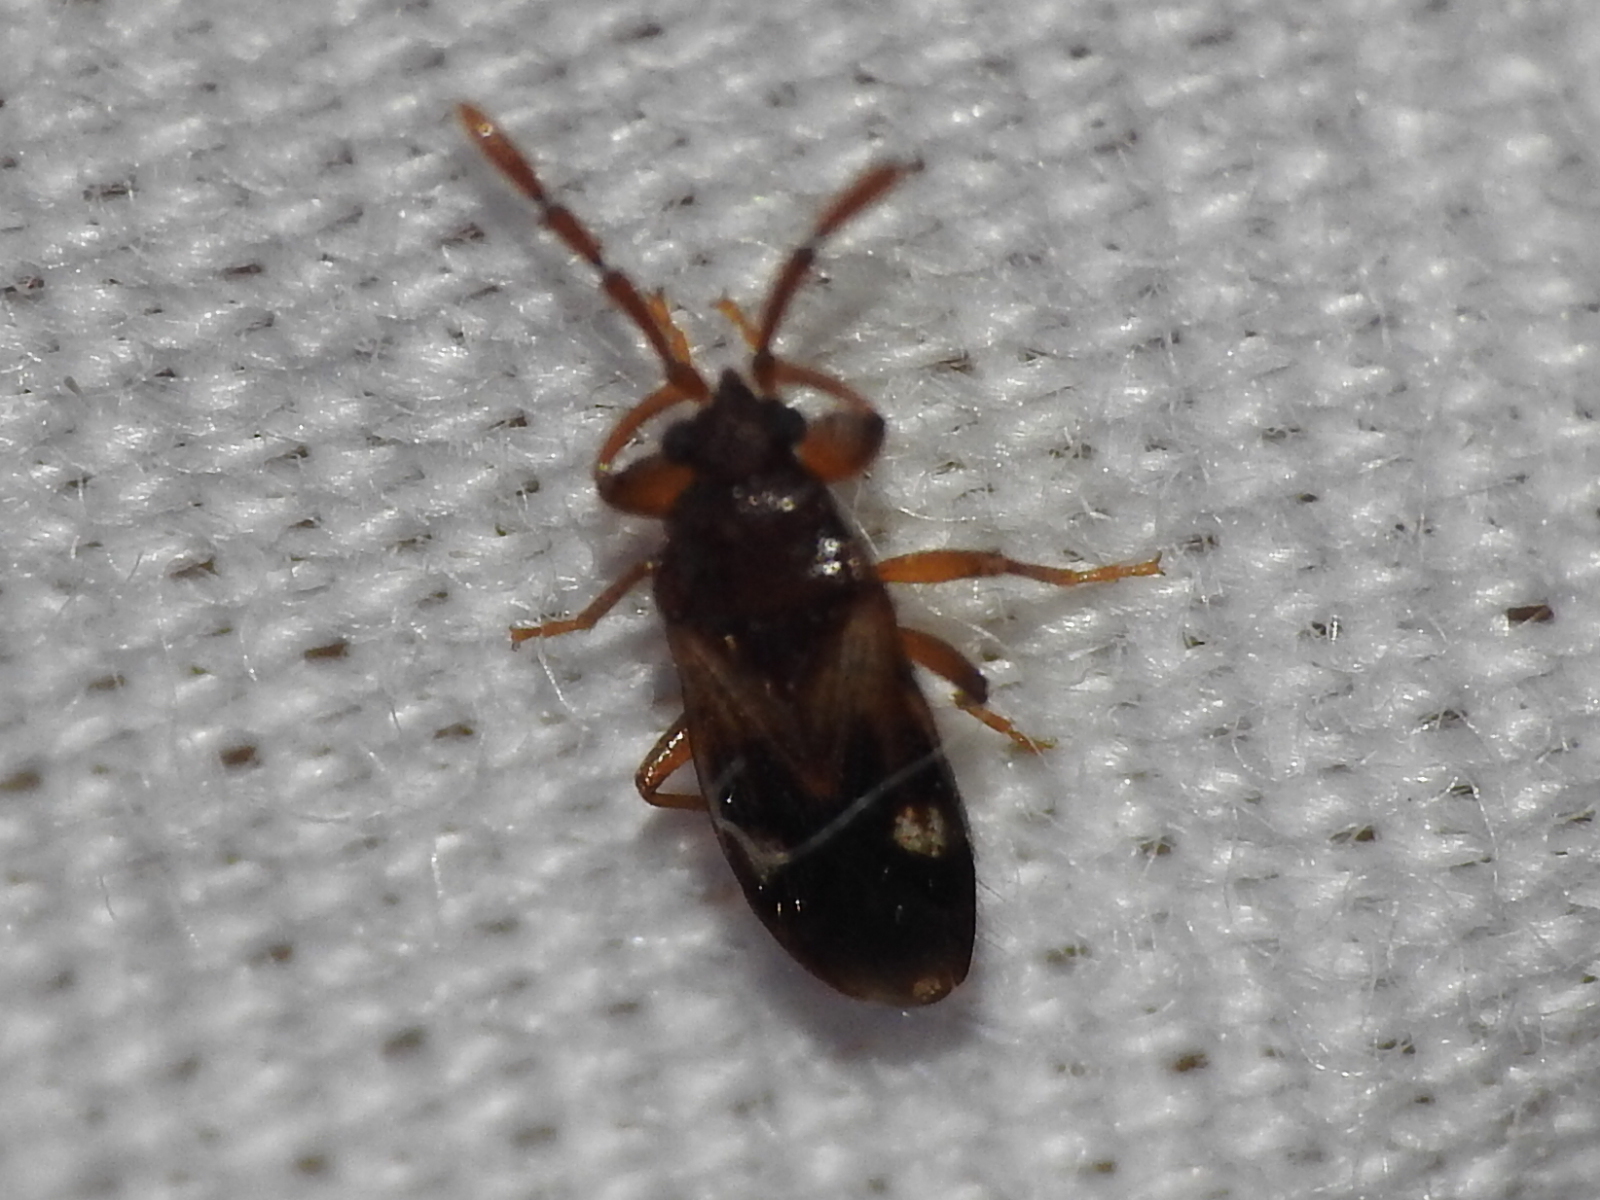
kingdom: Animalia
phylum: Arthropoda
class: Insecta
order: Hemiptera
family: Rhyparochromidae
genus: Tempyra
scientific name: Tempyra biguttula
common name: Seed bug
